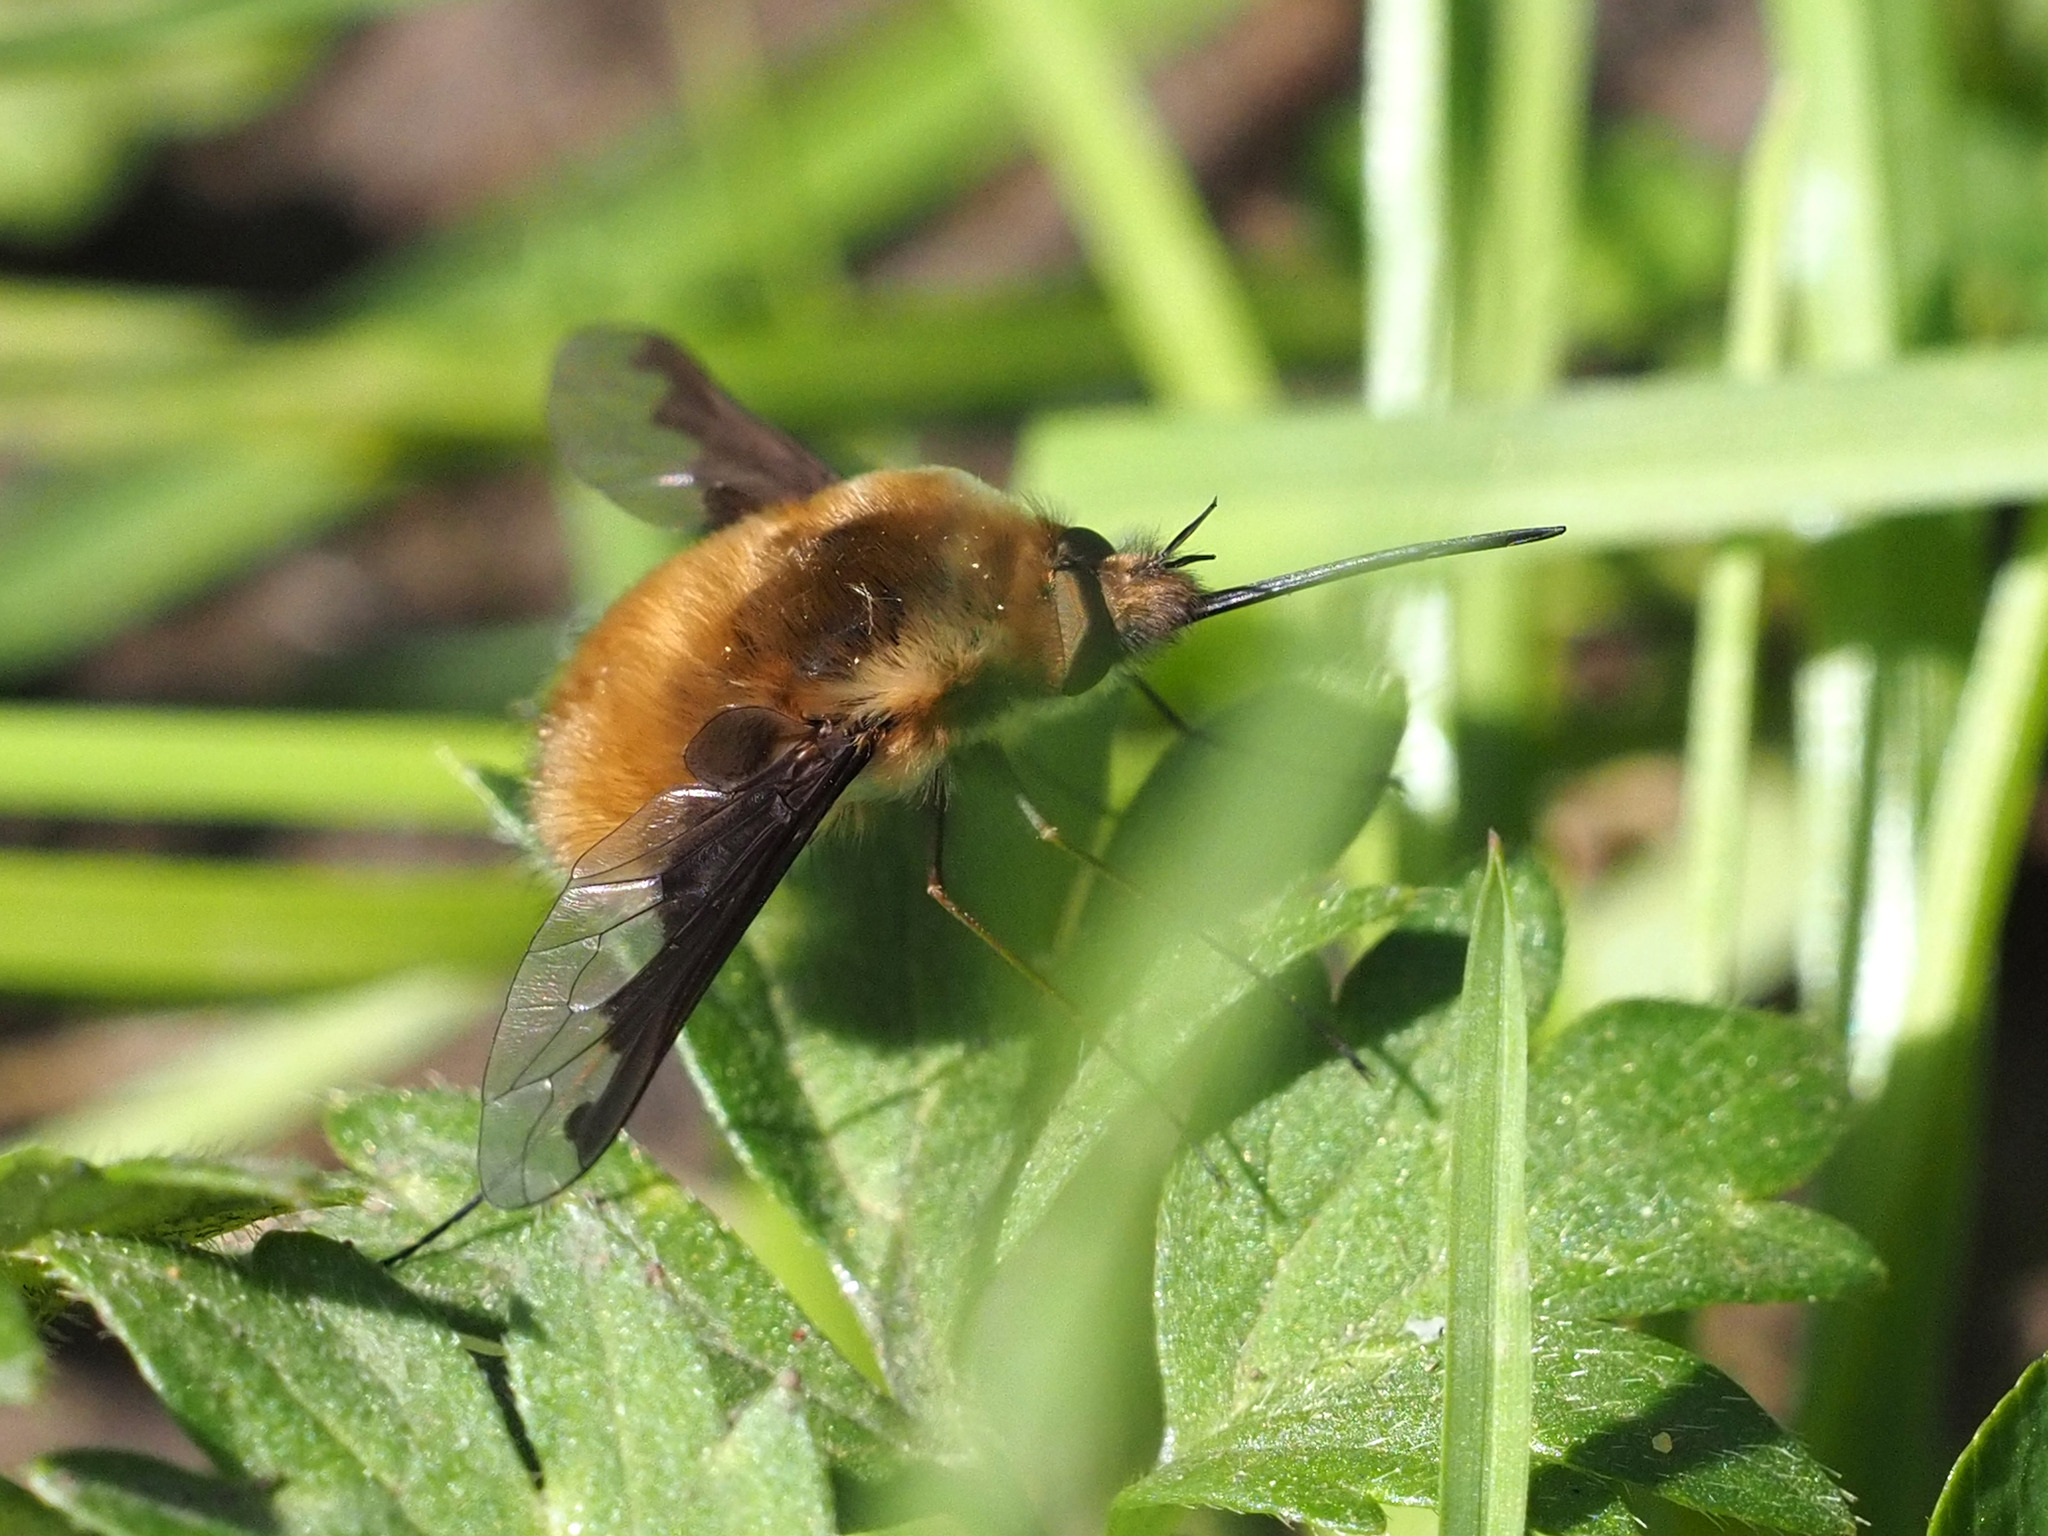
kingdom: Animalia
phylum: Arthropoda
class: Insecta
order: Diptera
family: Bombyliidae
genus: Bombylius
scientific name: Bombylius major
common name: Bee fly
